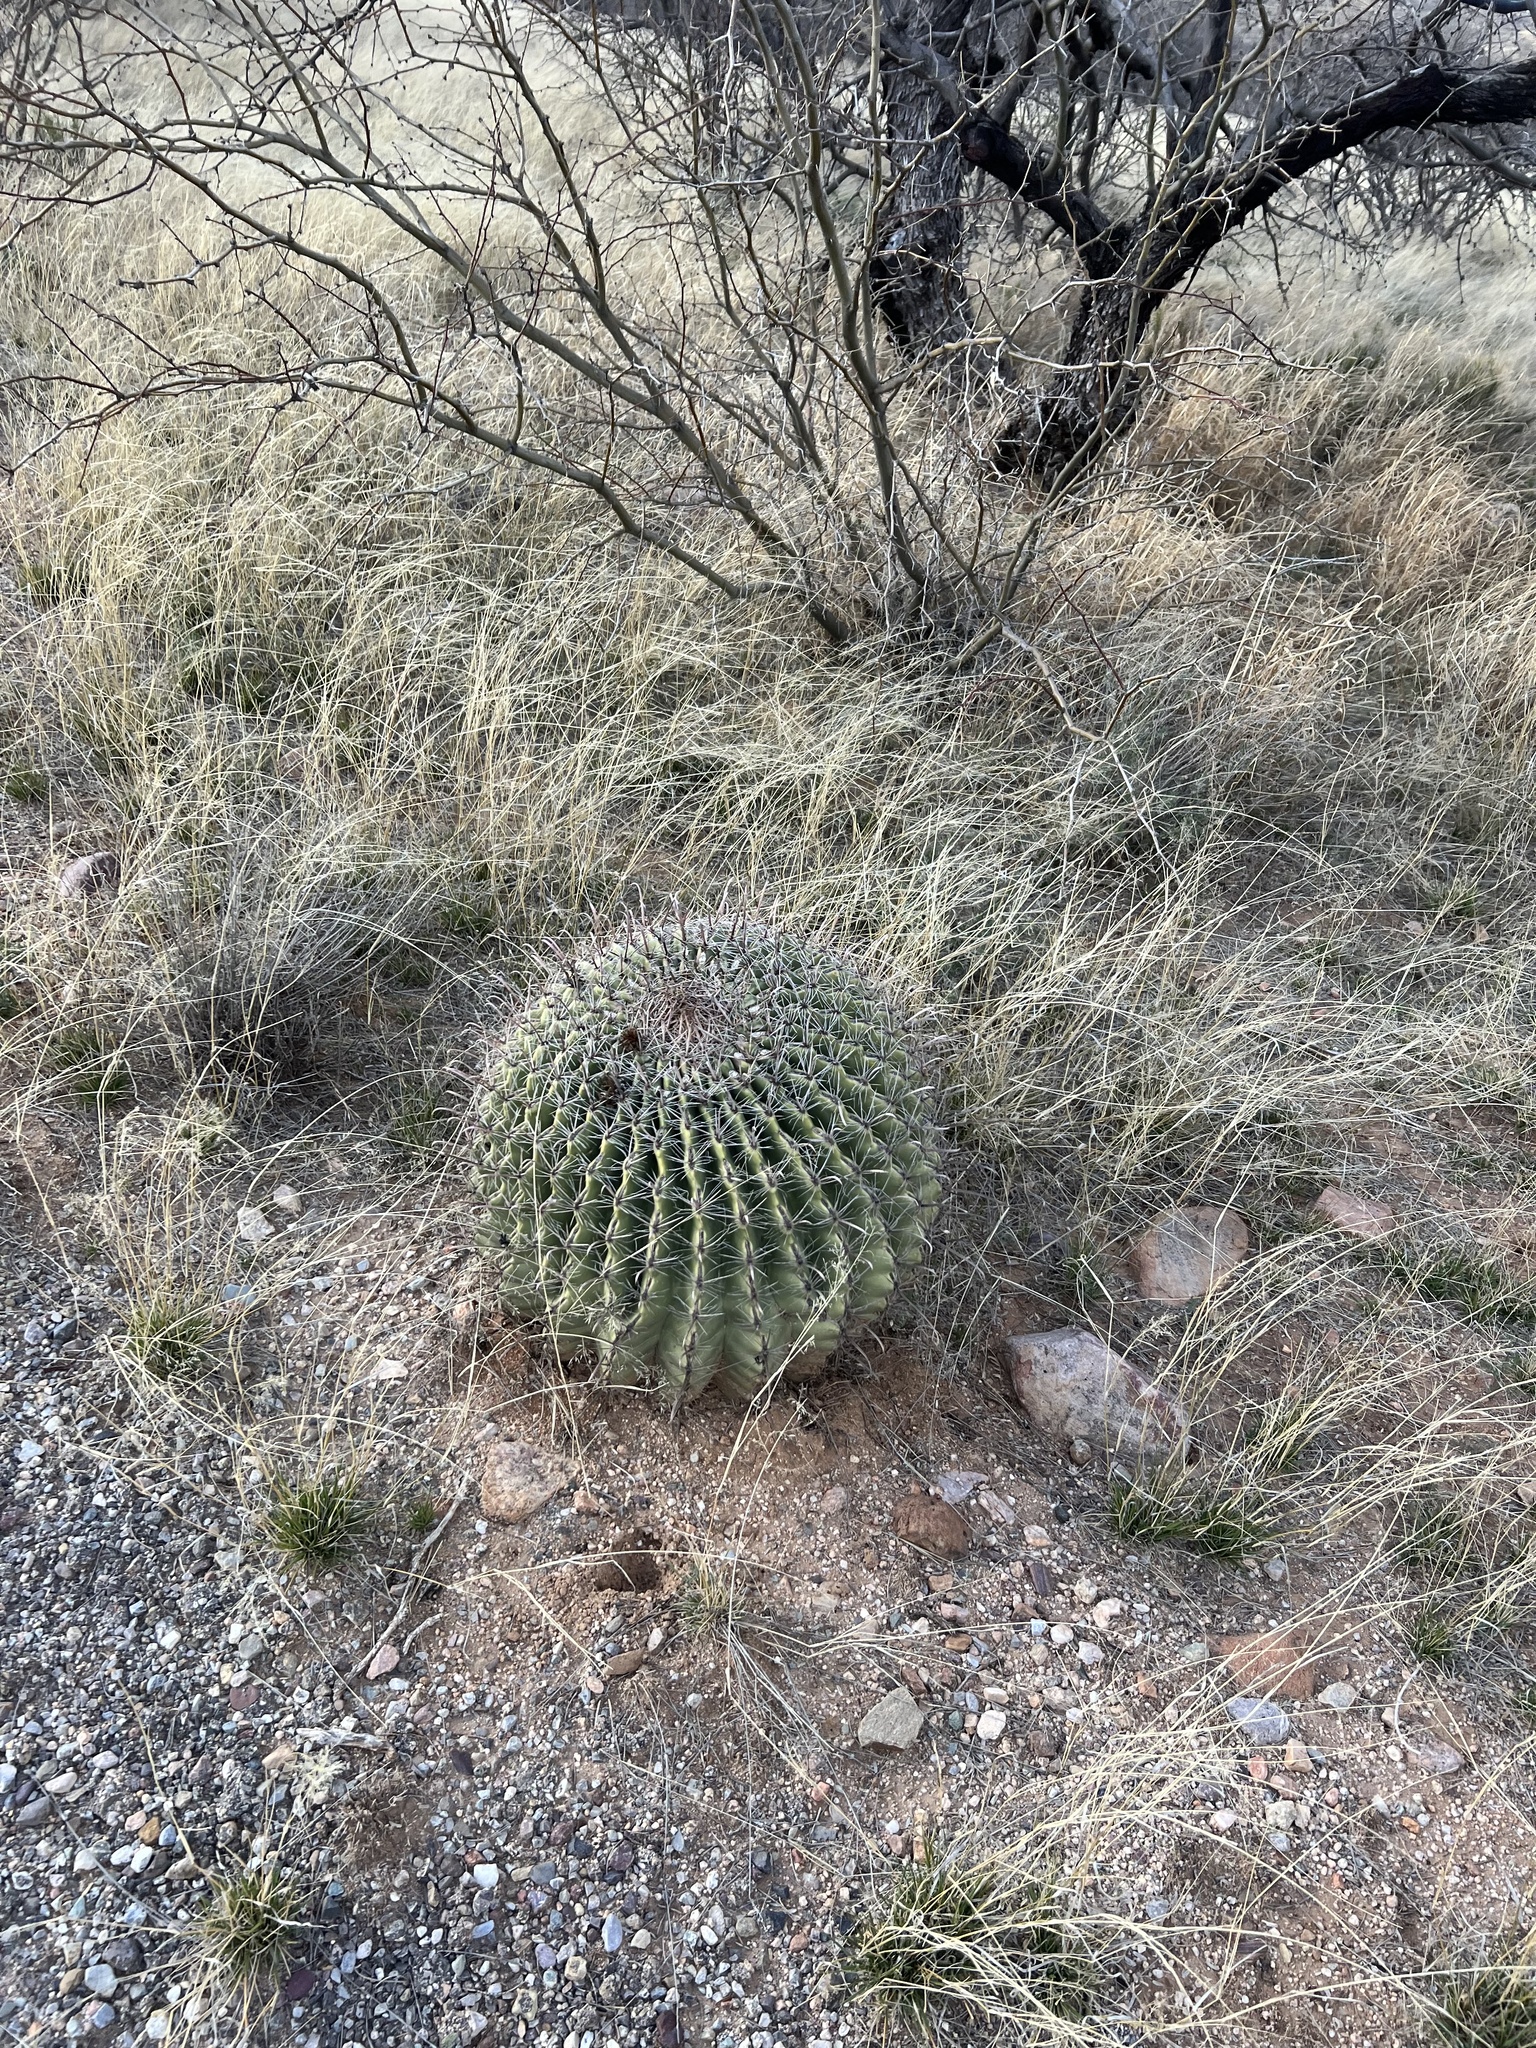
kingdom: Plantae
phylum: Tracheophyta
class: Magnoliopsida
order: Caryophyllales
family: Cactaceae
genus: Ferocactus
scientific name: Ferocactus wislizeni
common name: Candy barrel cactus
